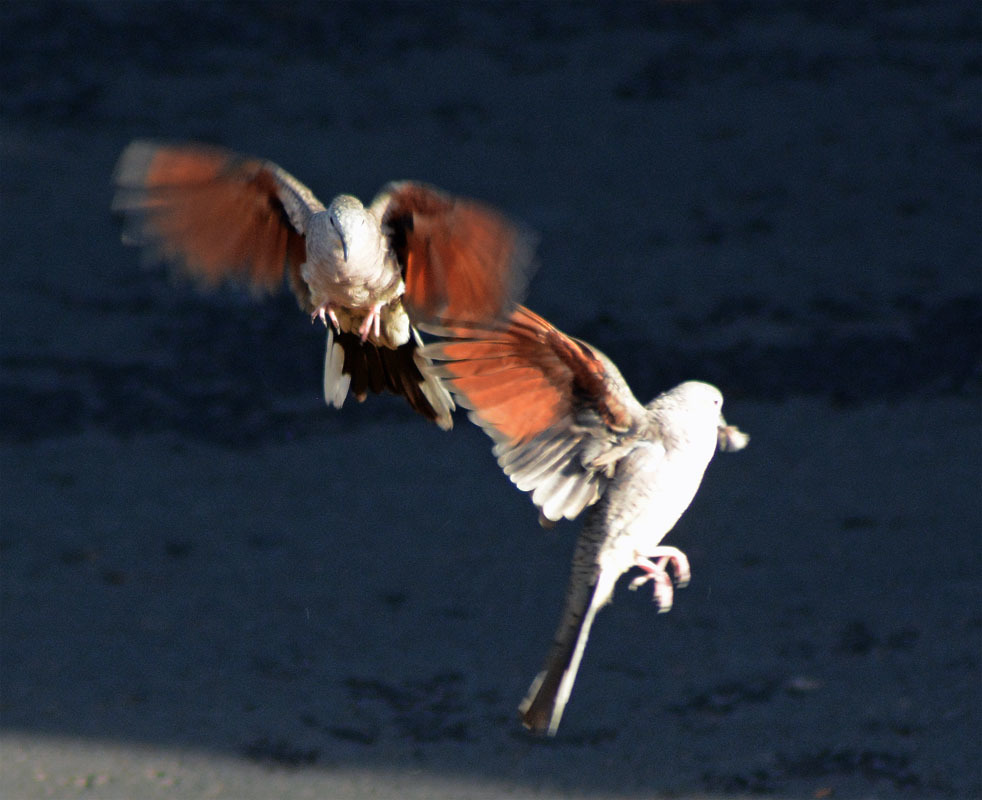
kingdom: Animalia
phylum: Chordata
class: Aves
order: Columbiformes
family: Columbidae
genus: Columbina
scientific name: Columbina inca
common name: Inca dove
